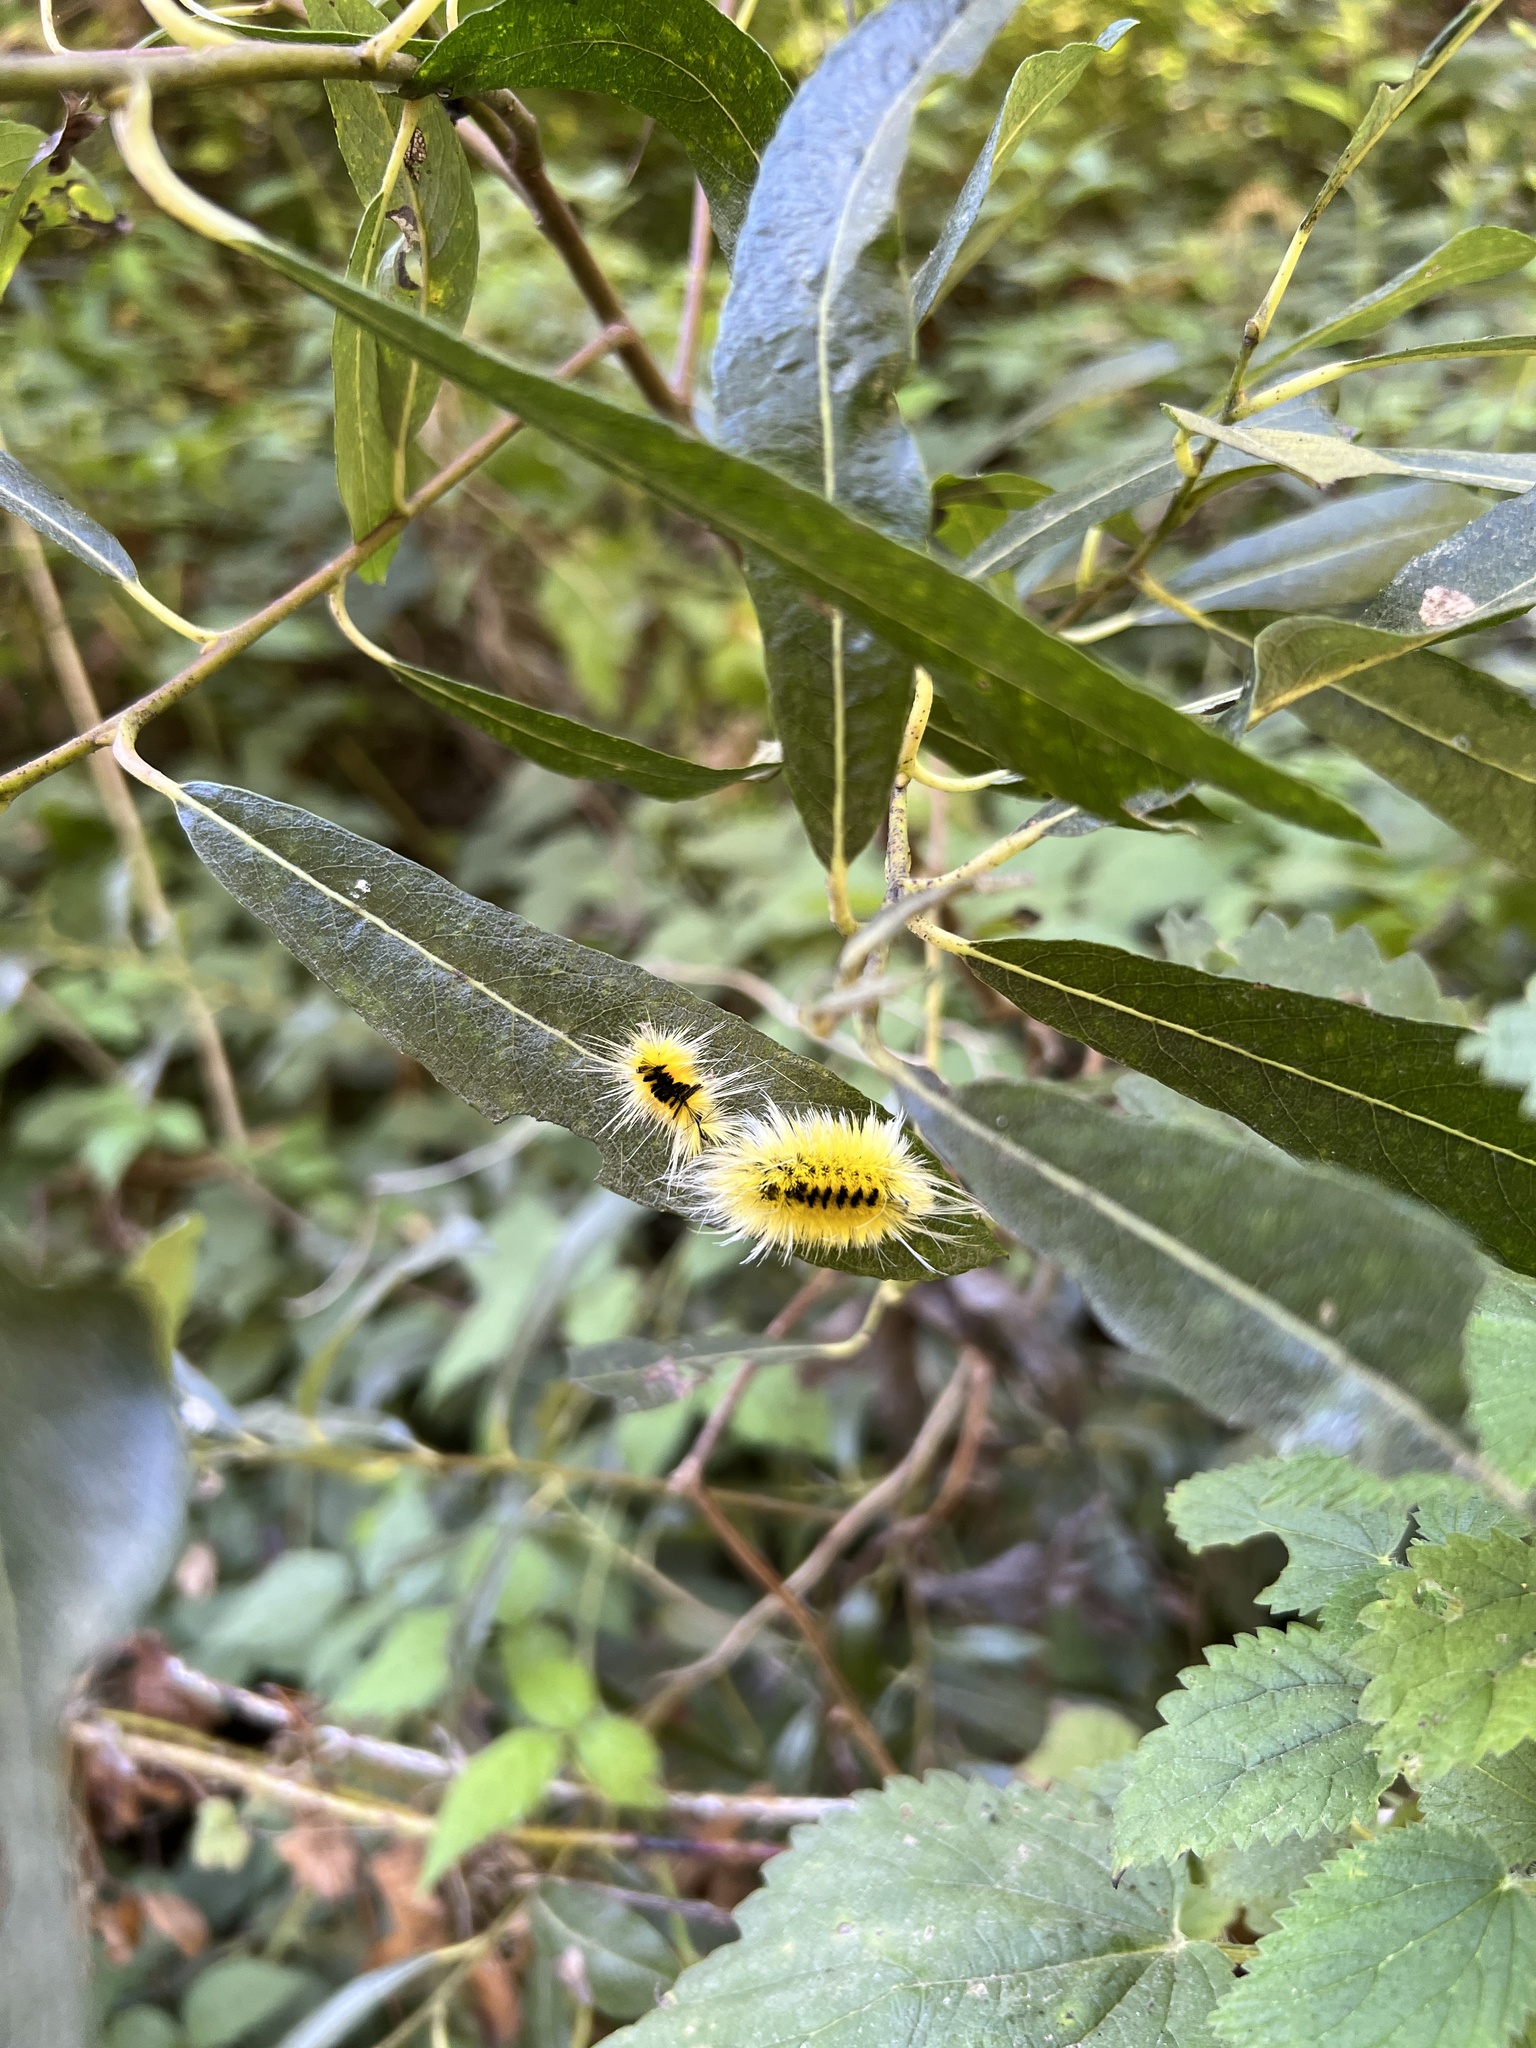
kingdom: Animalia
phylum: Arthropoda
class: Insecta
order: Lepidoptera
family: Erebidae
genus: Lophocampa
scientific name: Lophocampa maculata
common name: Spotted tussock moth
